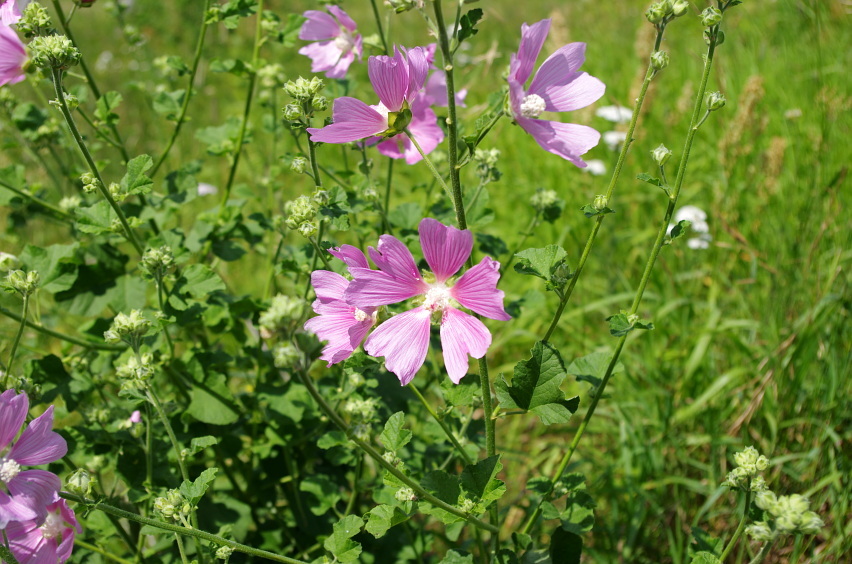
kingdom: Plantae
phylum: Tracheophyta
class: Magnoliopsida
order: Malvales
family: Malvaceae
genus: Malva
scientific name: Malva thuringiaca
